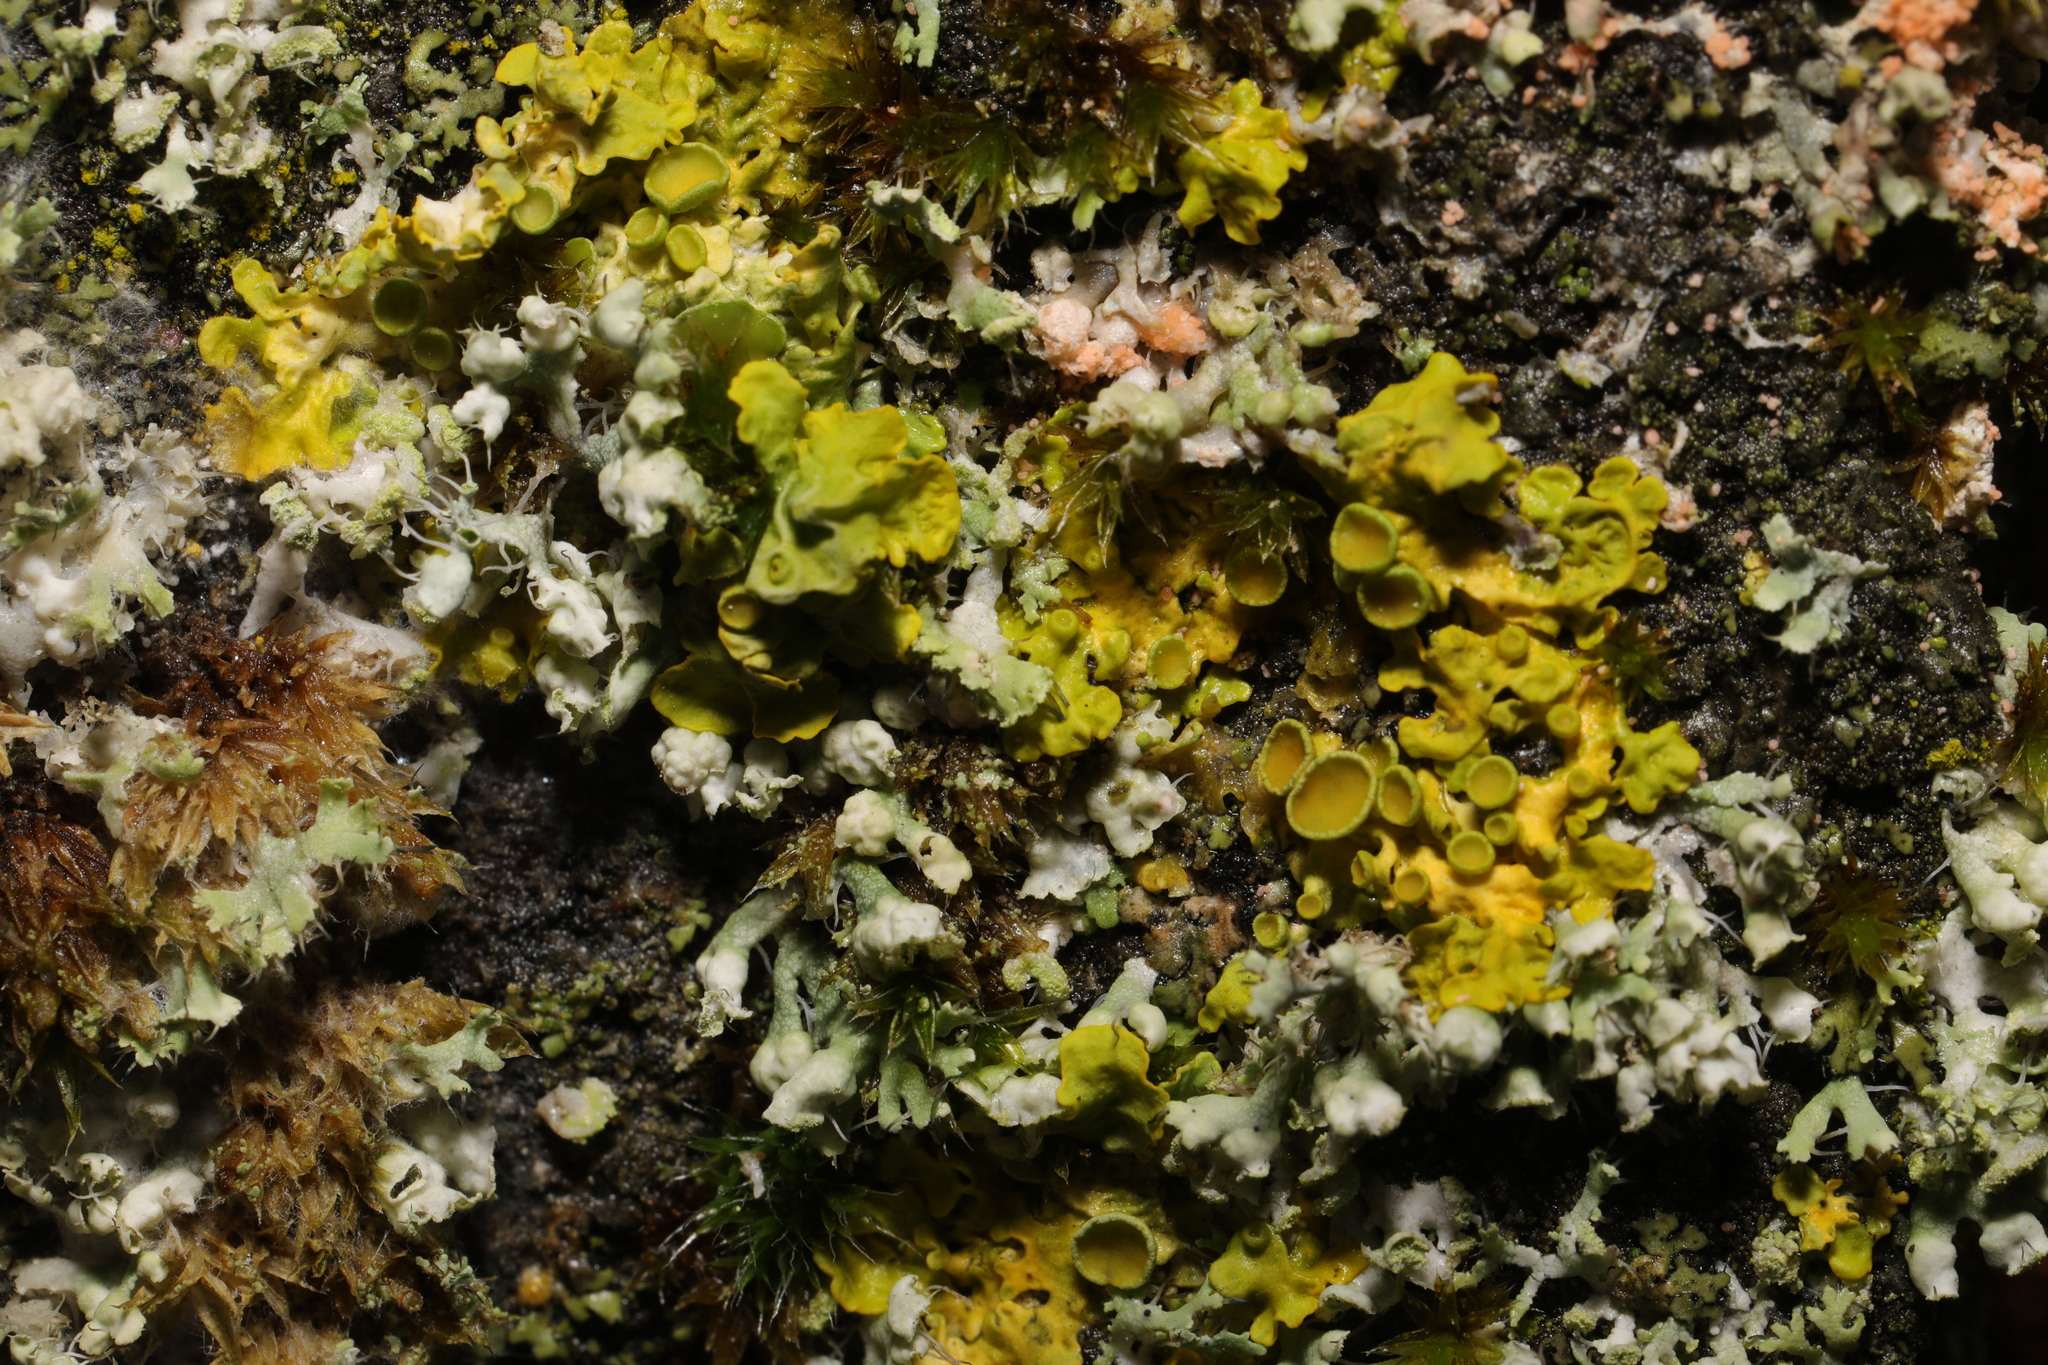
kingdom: Fungi
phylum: Ascomycota
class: Lecanoromycetes
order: Teloschistales
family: Teloschistaceae
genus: Xanthoria
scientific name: Xanthoria parietina
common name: Common orange lichen
